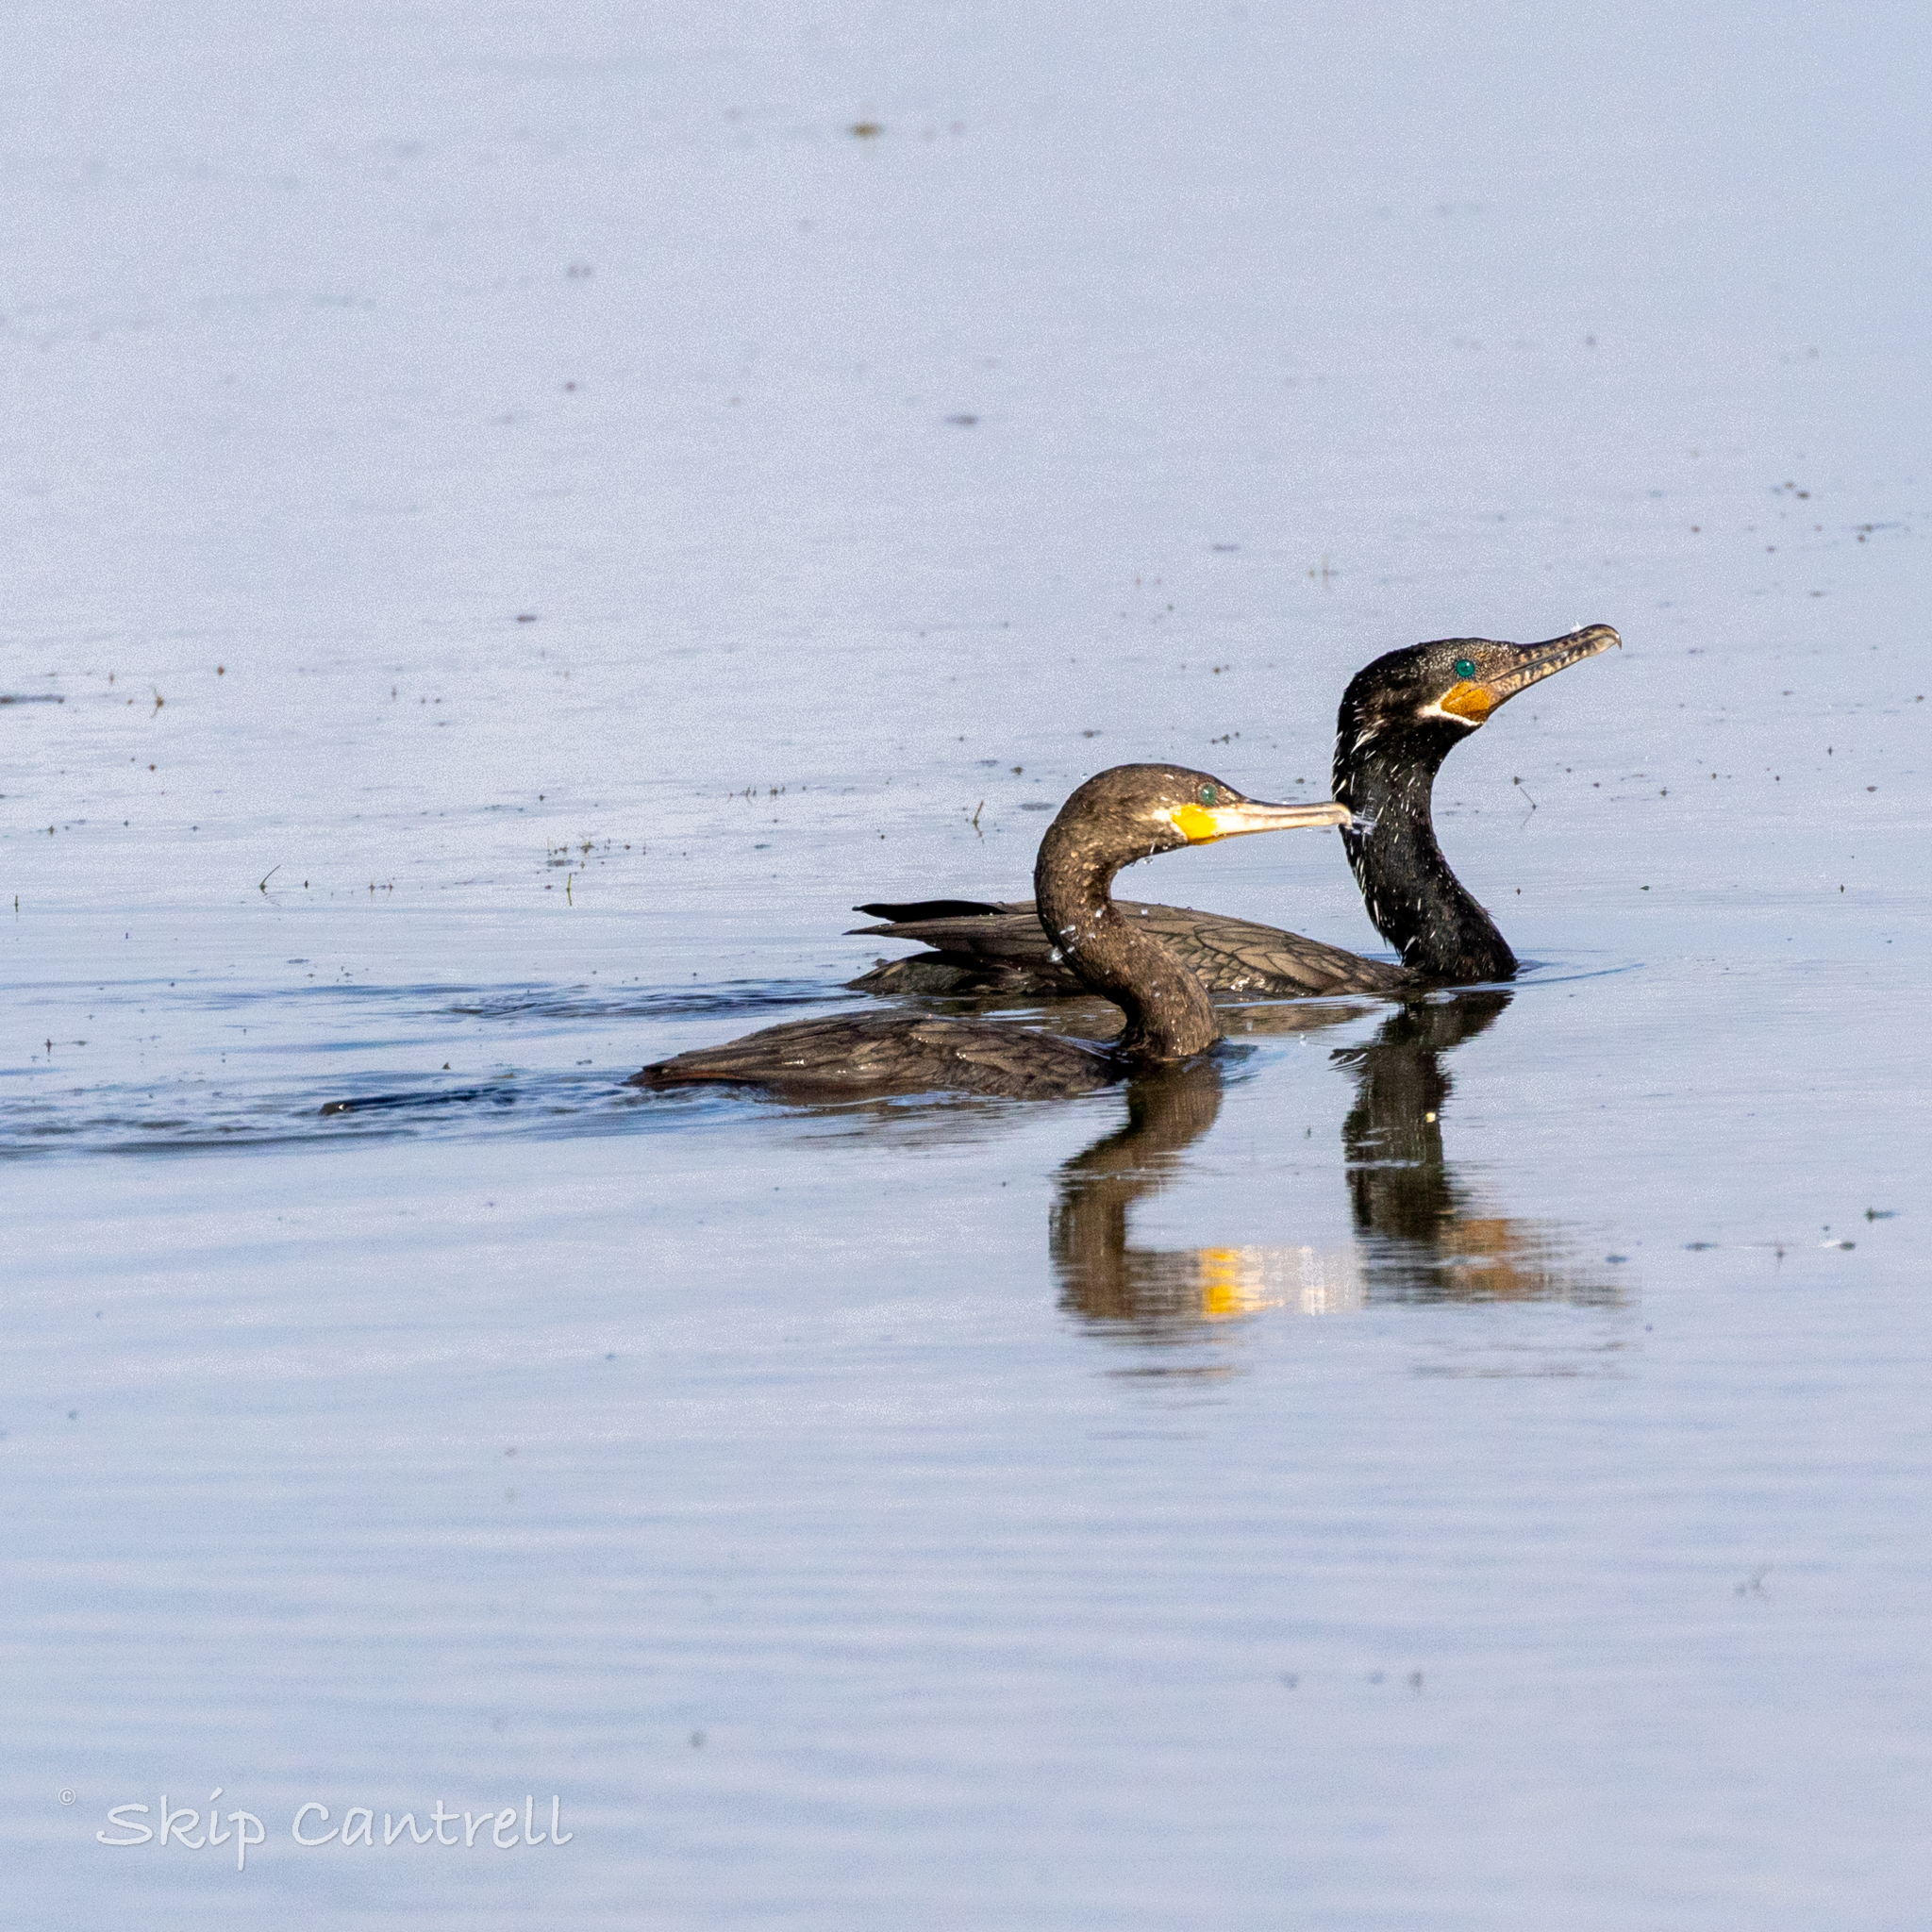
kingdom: Animalia
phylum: Chordata
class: Aves
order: Suliformes
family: Phalacrocoracidae
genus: Phalacrocorax
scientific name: Phalacrocorax brasilianus
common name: Neotropic cormorant
